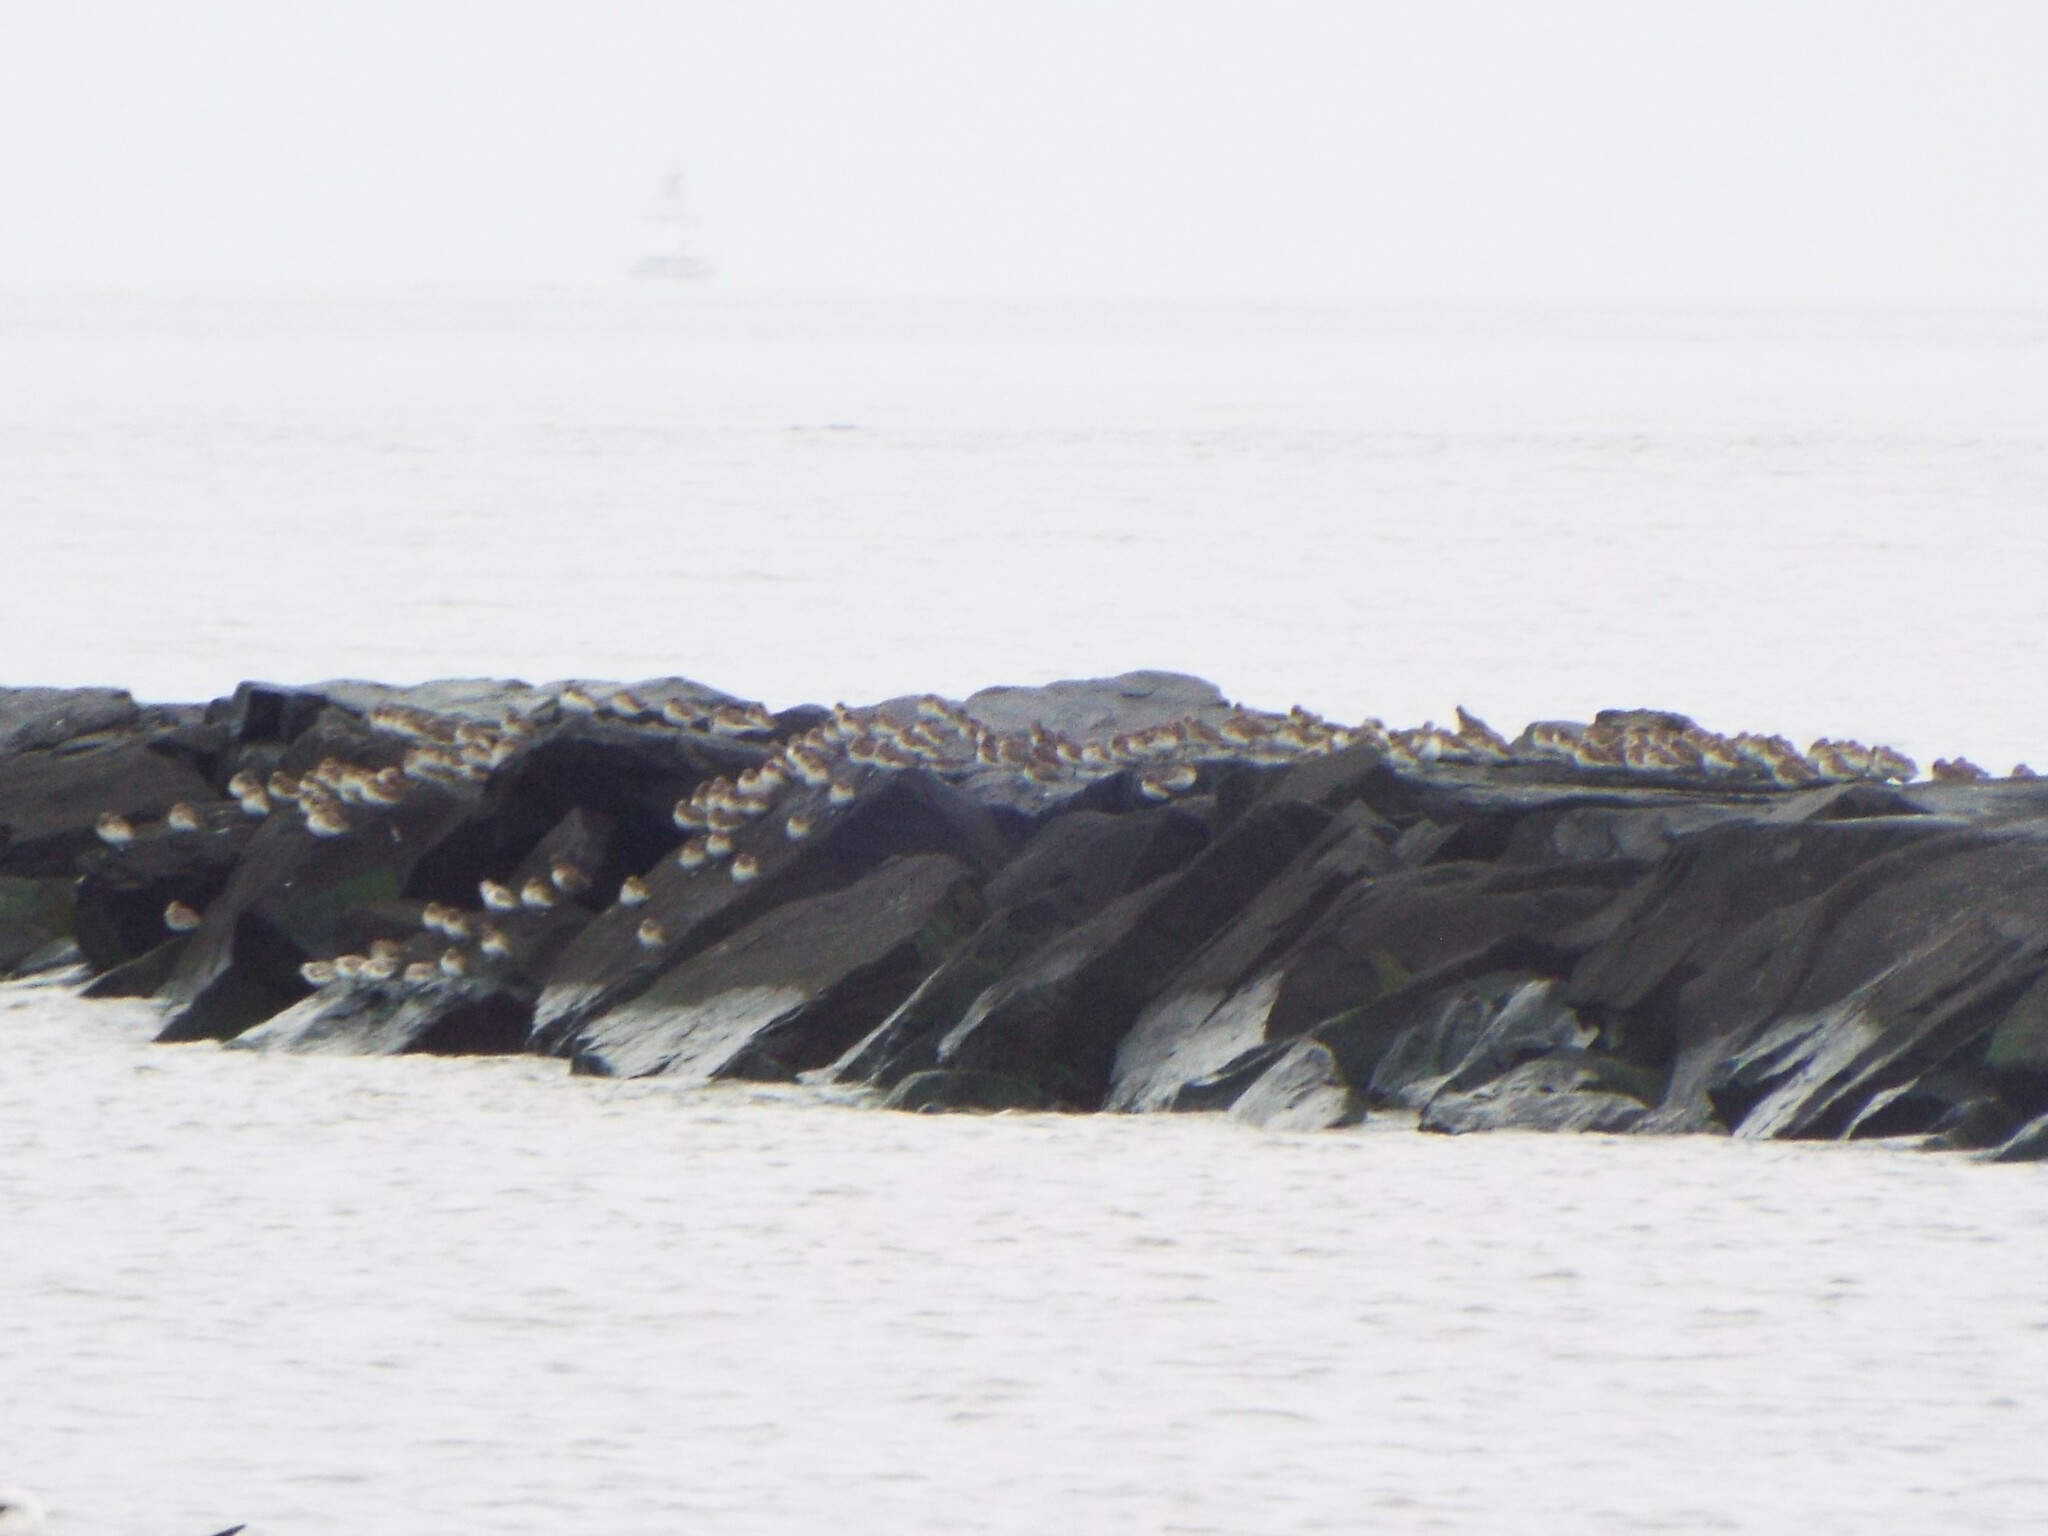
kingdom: Animalia
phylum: Chordata
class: Aves
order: Charadriiformes
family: Scolopacidae
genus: Calidris
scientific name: Calidris alpina
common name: Dunlin
